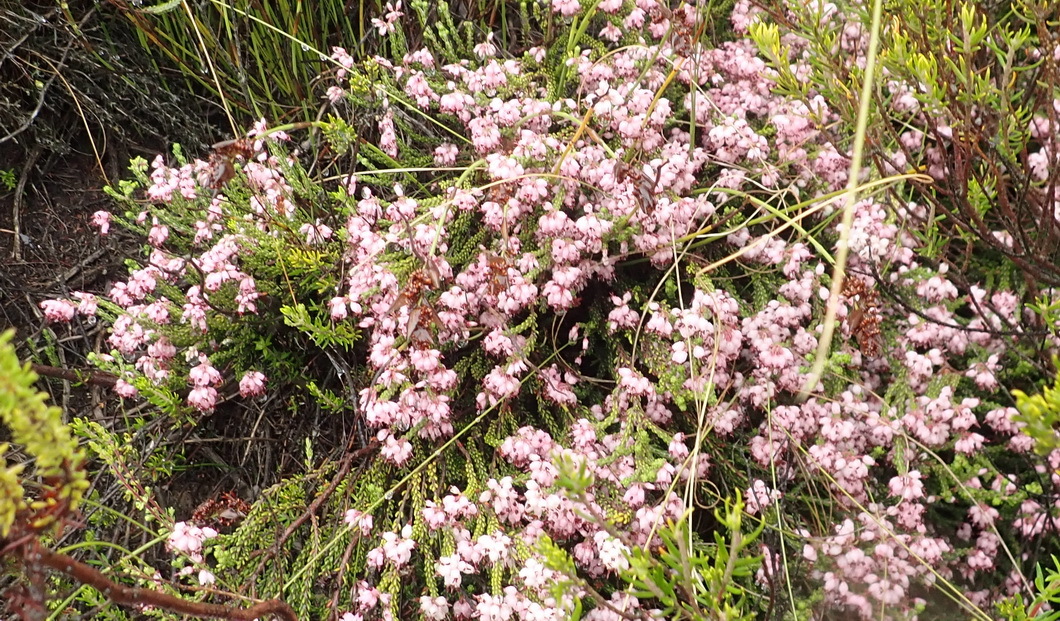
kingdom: Plantae
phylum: Tracheophyta
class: Magnoliopsida
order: Ericales
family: Ericaceae
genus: Erica
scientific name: Erica petraea
